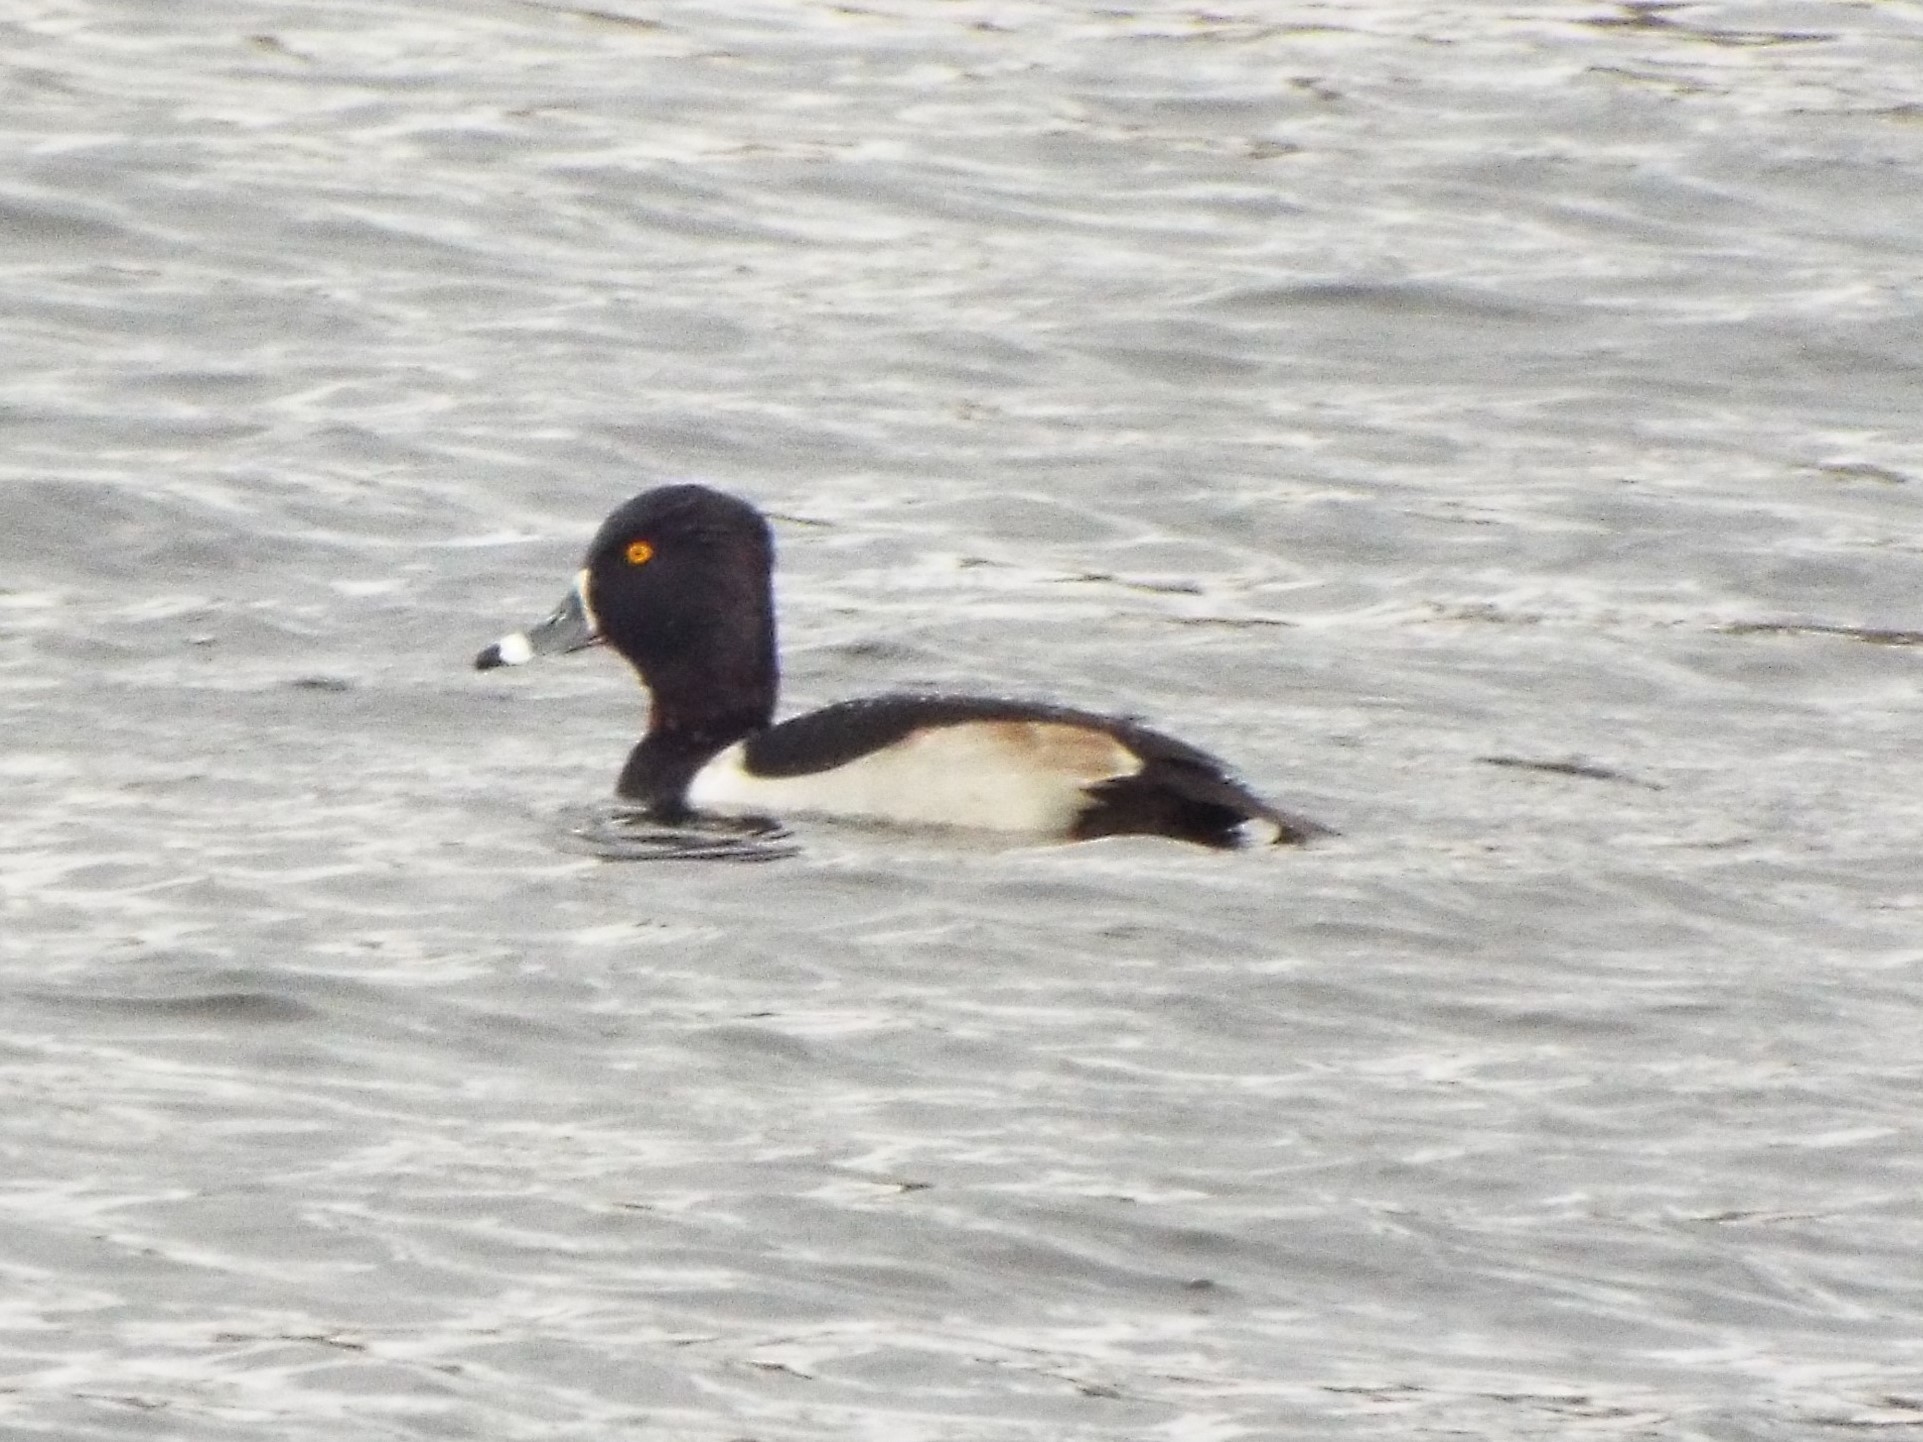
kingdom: Animalia
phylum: Chordata
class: Aves
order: Anseriformes
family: Anatidae
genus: Aythya
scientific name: Aythya collaris
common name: Ring-necked duck
